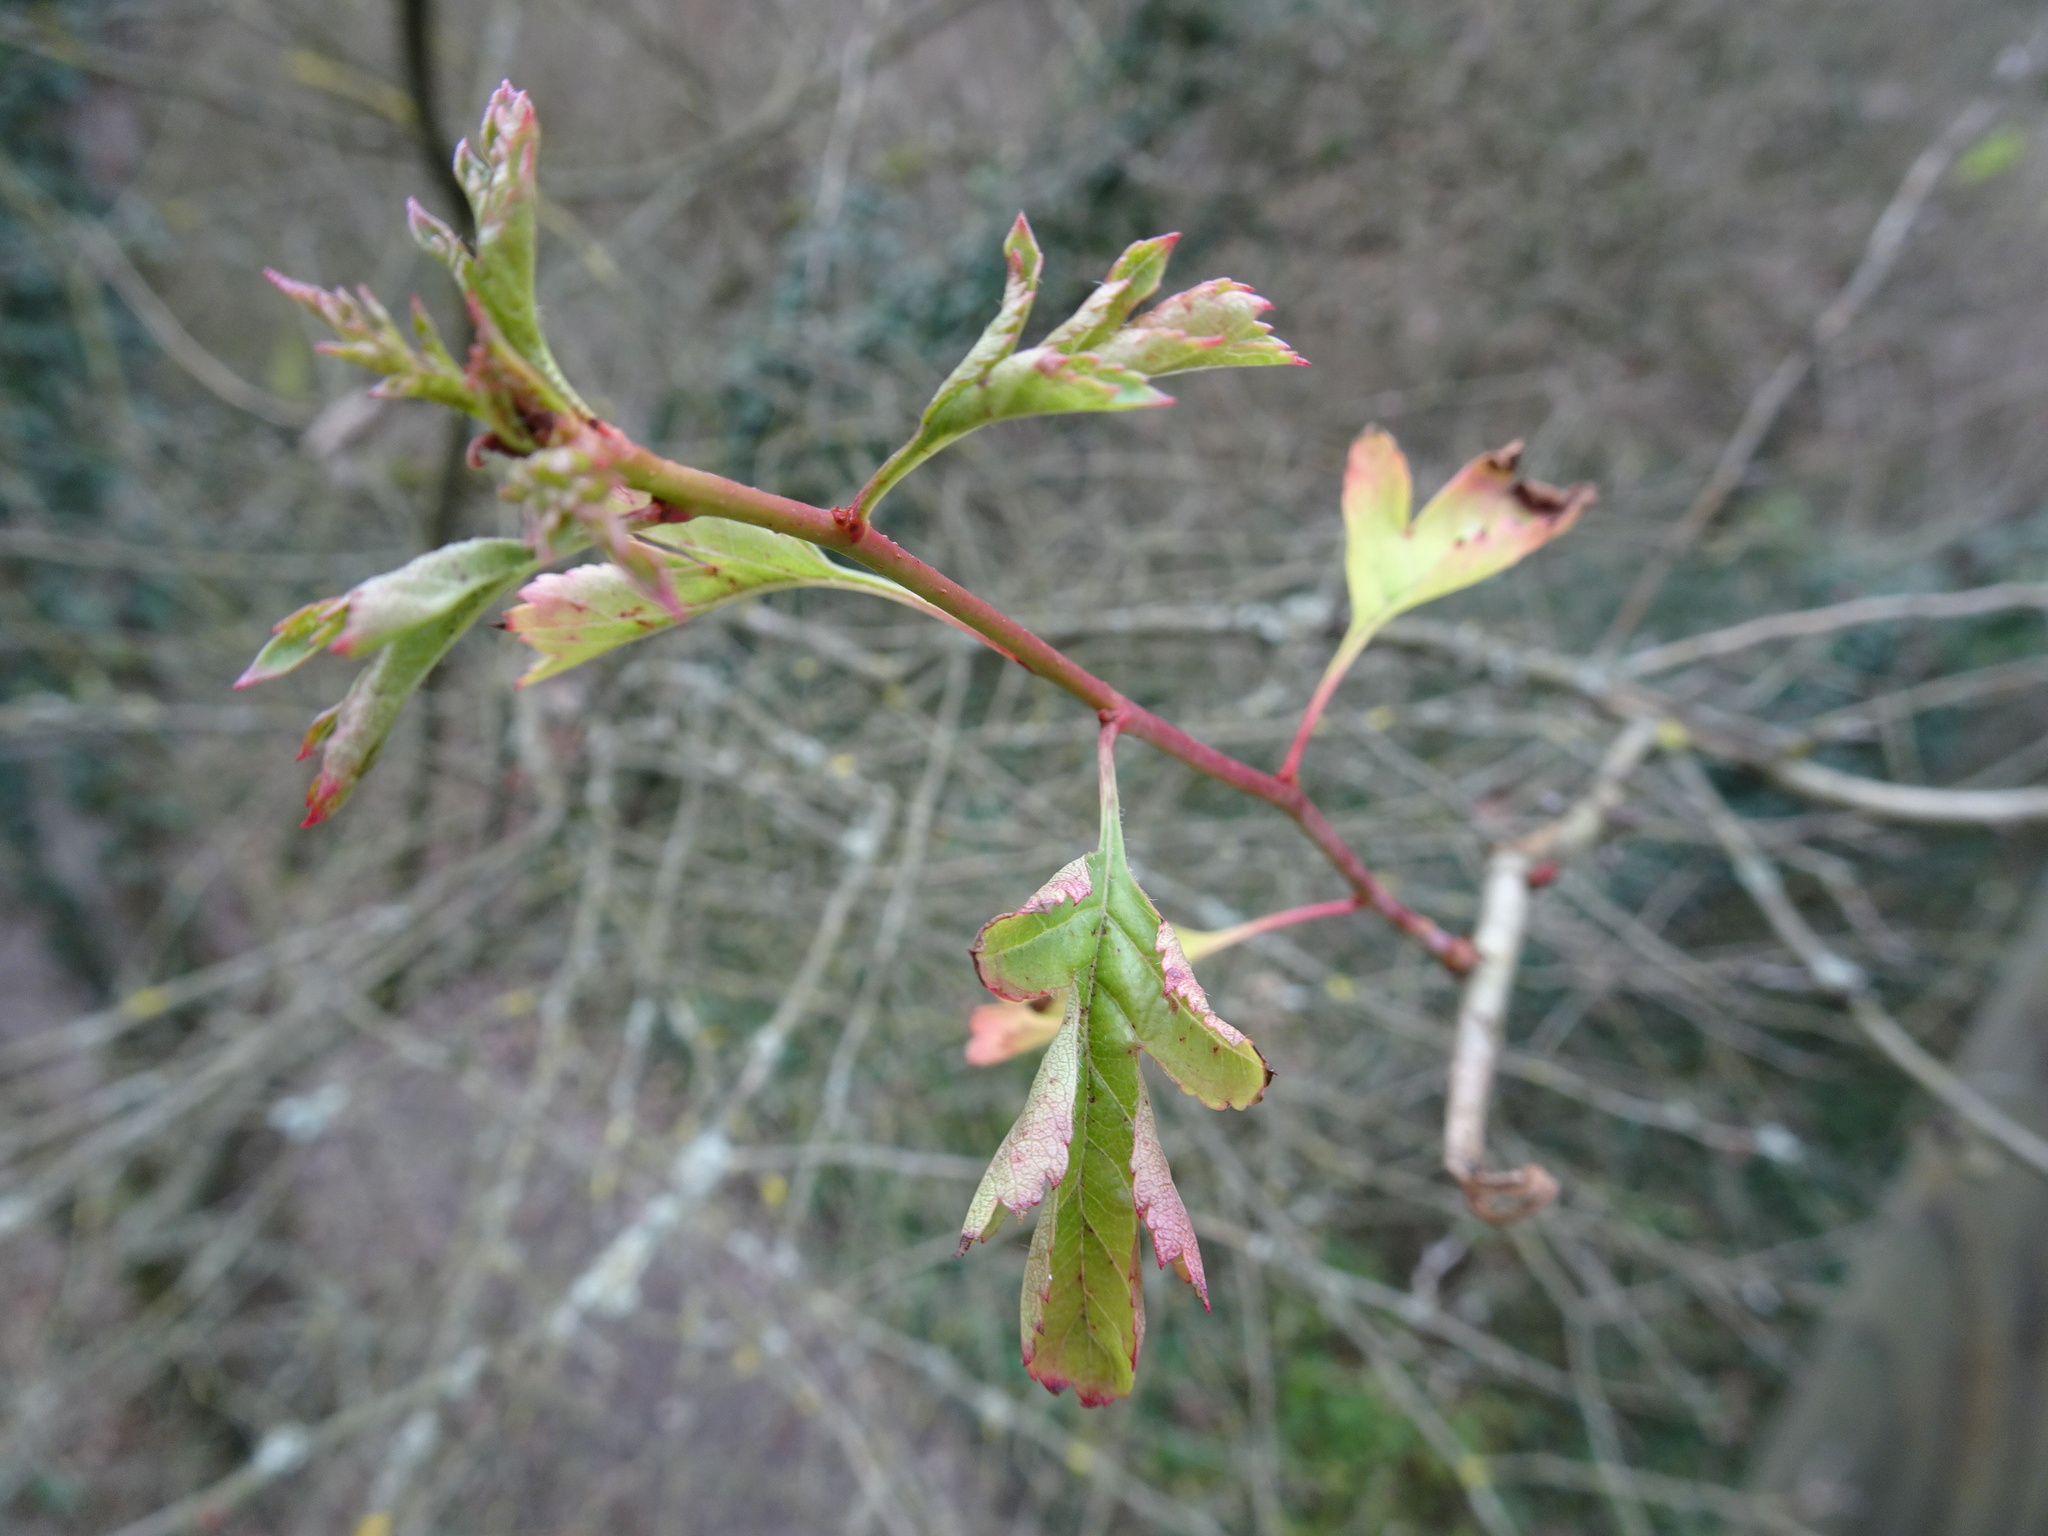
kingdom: Plantae
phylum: Tracheophyta
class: Magnoliopsida
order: Rosales
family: Rosaceae
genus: Crataegus
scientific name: Crataegus monogyna
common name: Hawthorn
